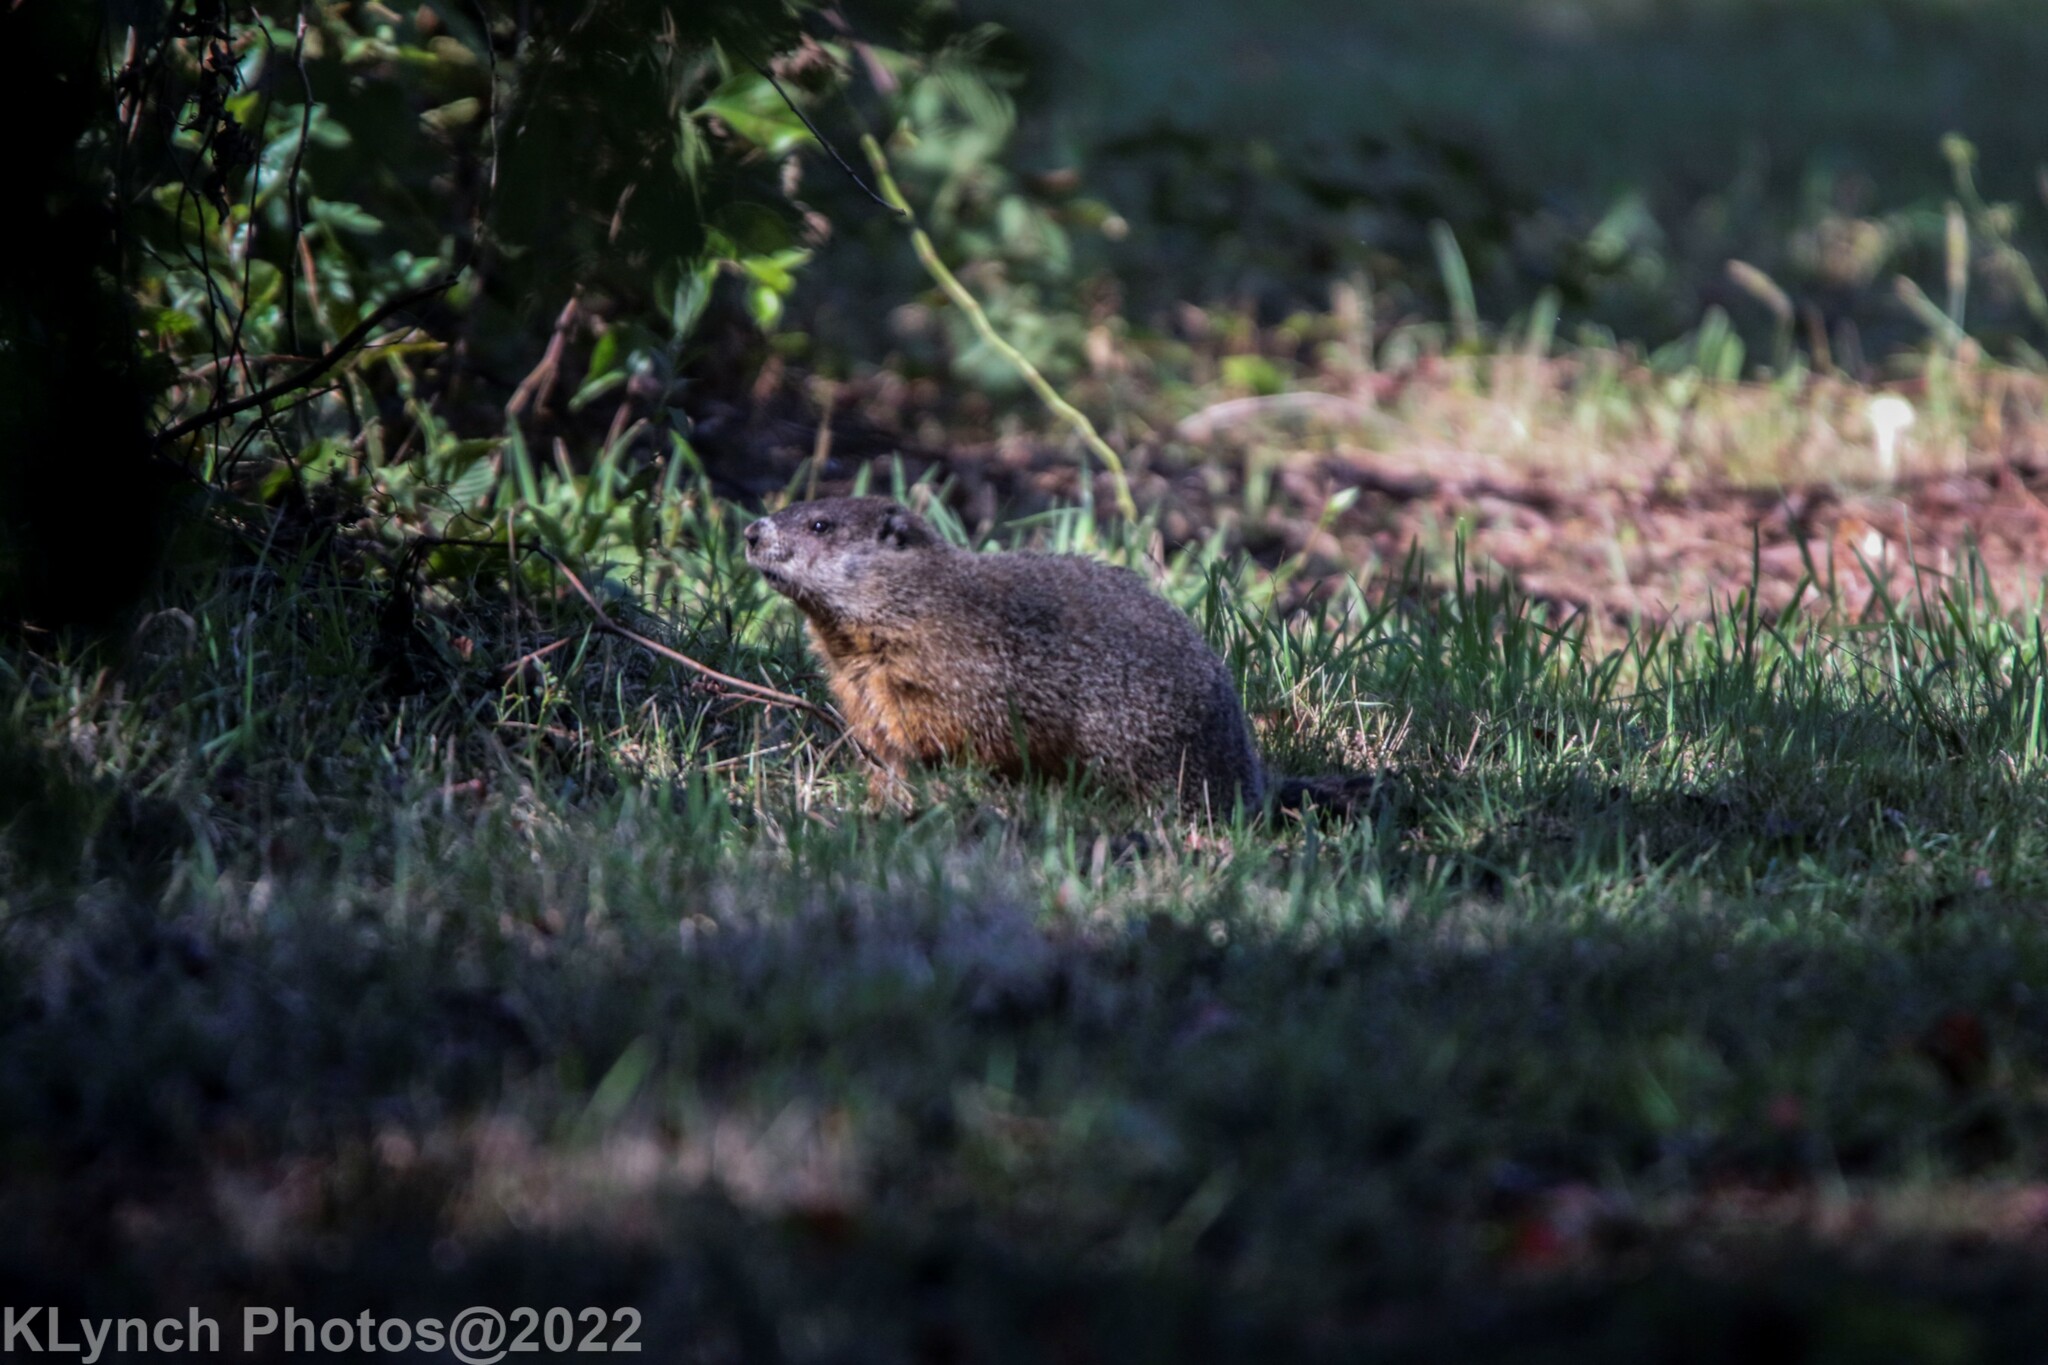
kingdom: Animalia
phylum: Chordata
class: Mammalia
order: Rodentia
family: Sciuridae
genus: Marmota
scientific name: Marmota monax
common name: Groundhog
